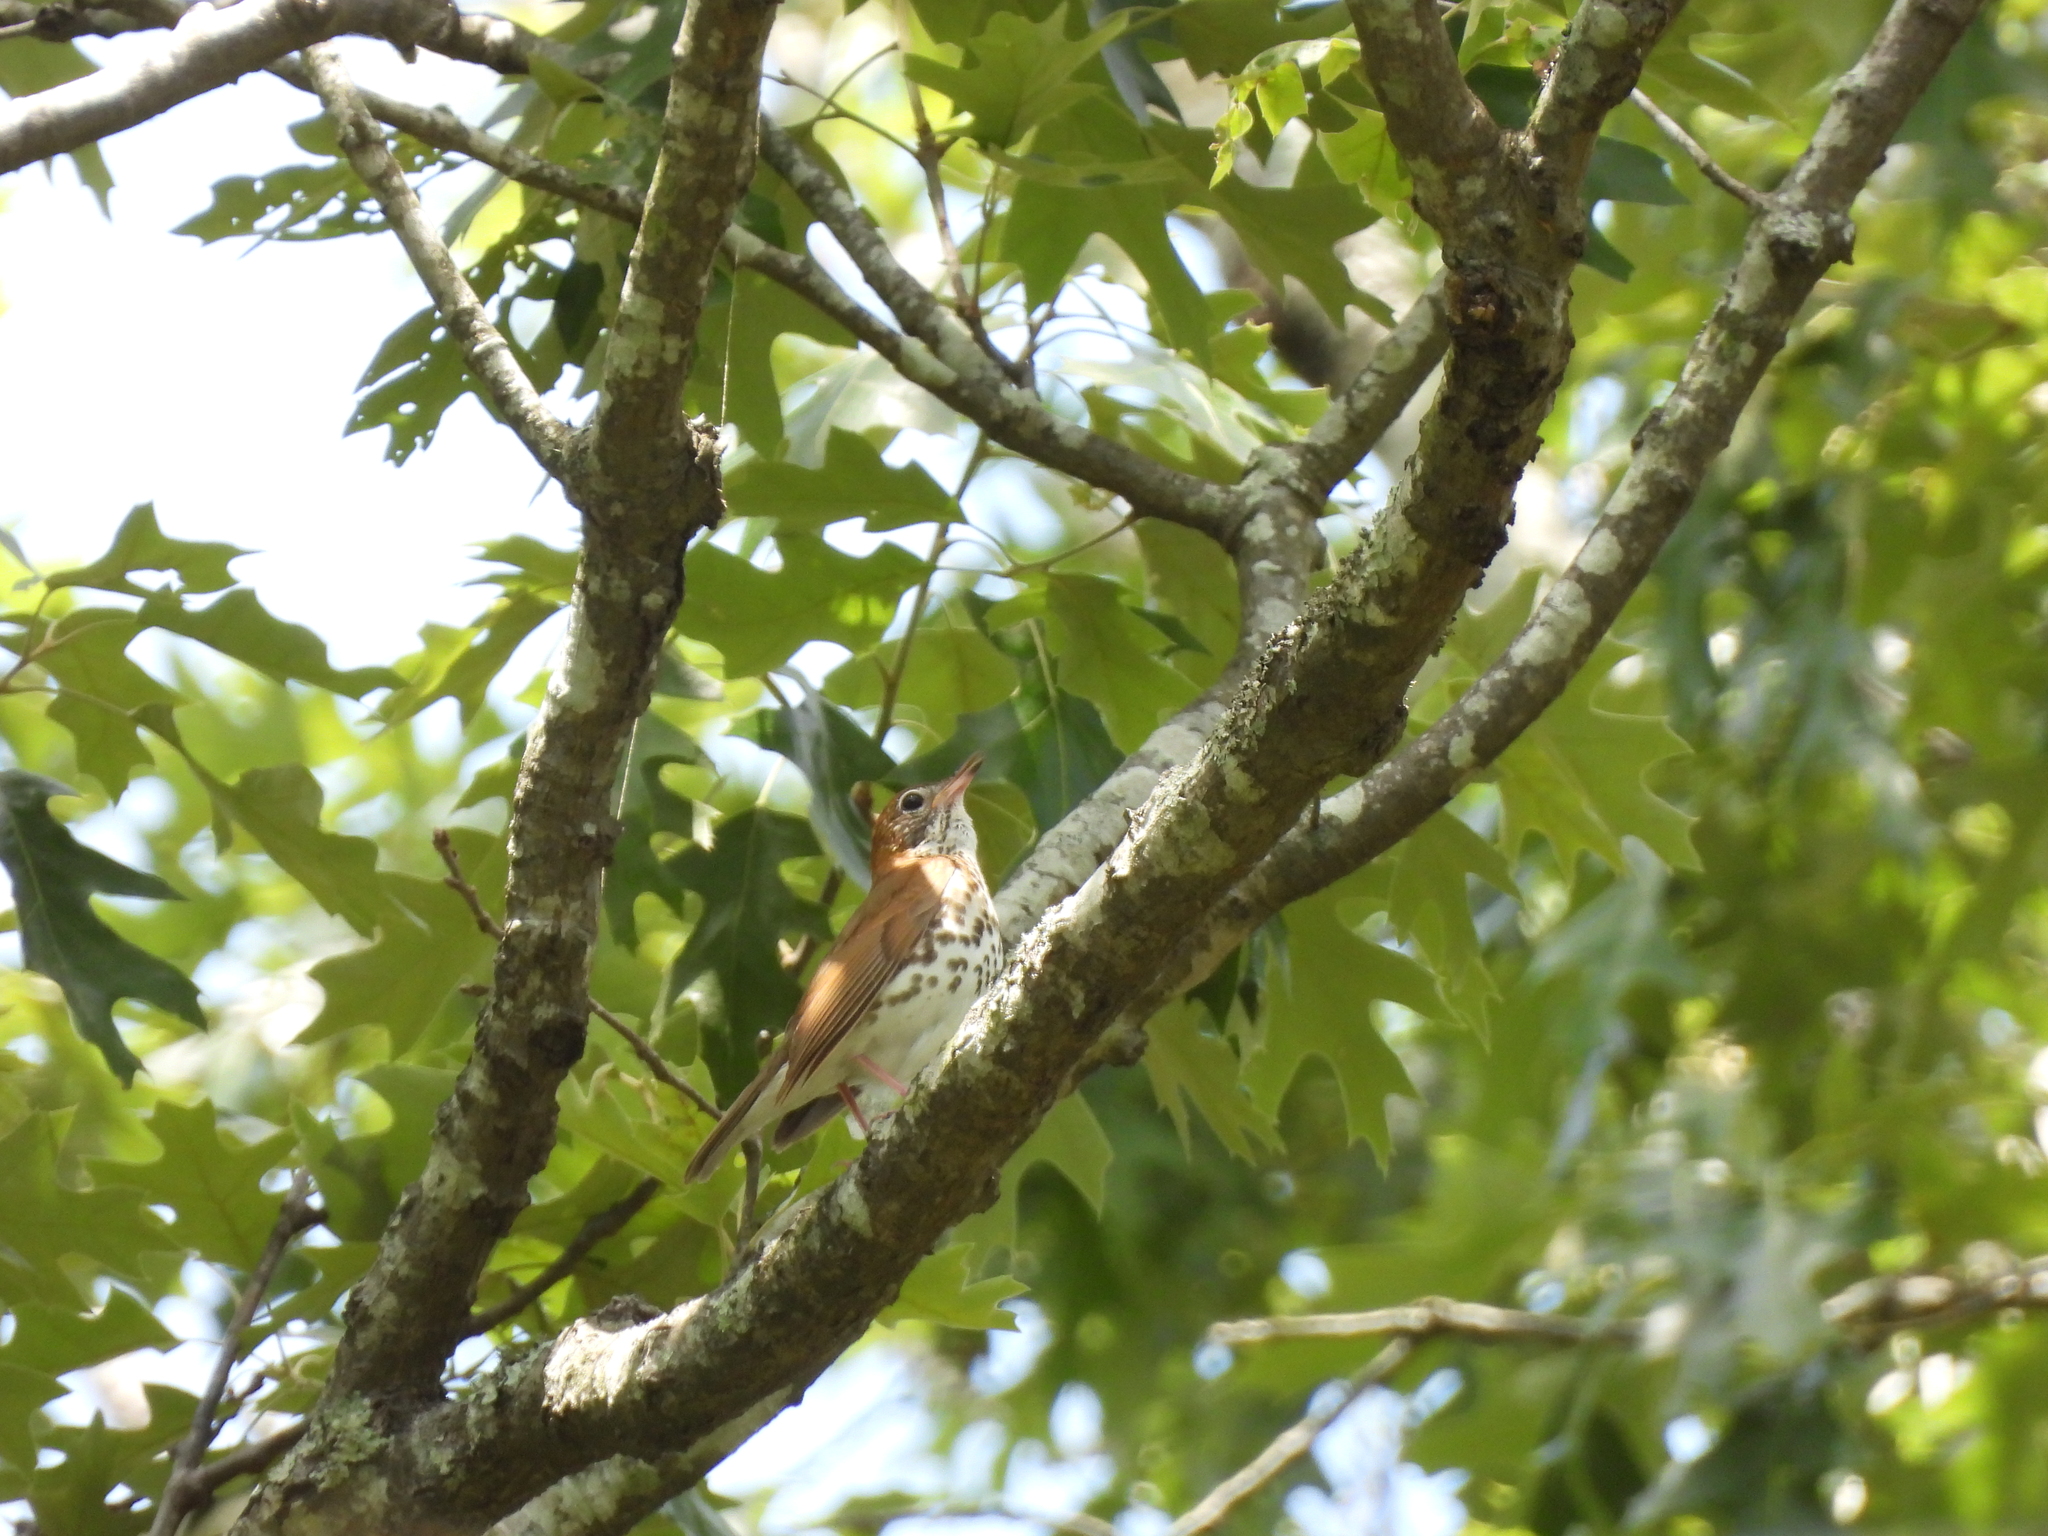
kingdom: Animalia
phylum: Chordata
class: Aves
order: Passeriformes
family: Turdidae
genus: Hylocichla
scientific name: Hylocichla mustelina
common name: Wood thrush
